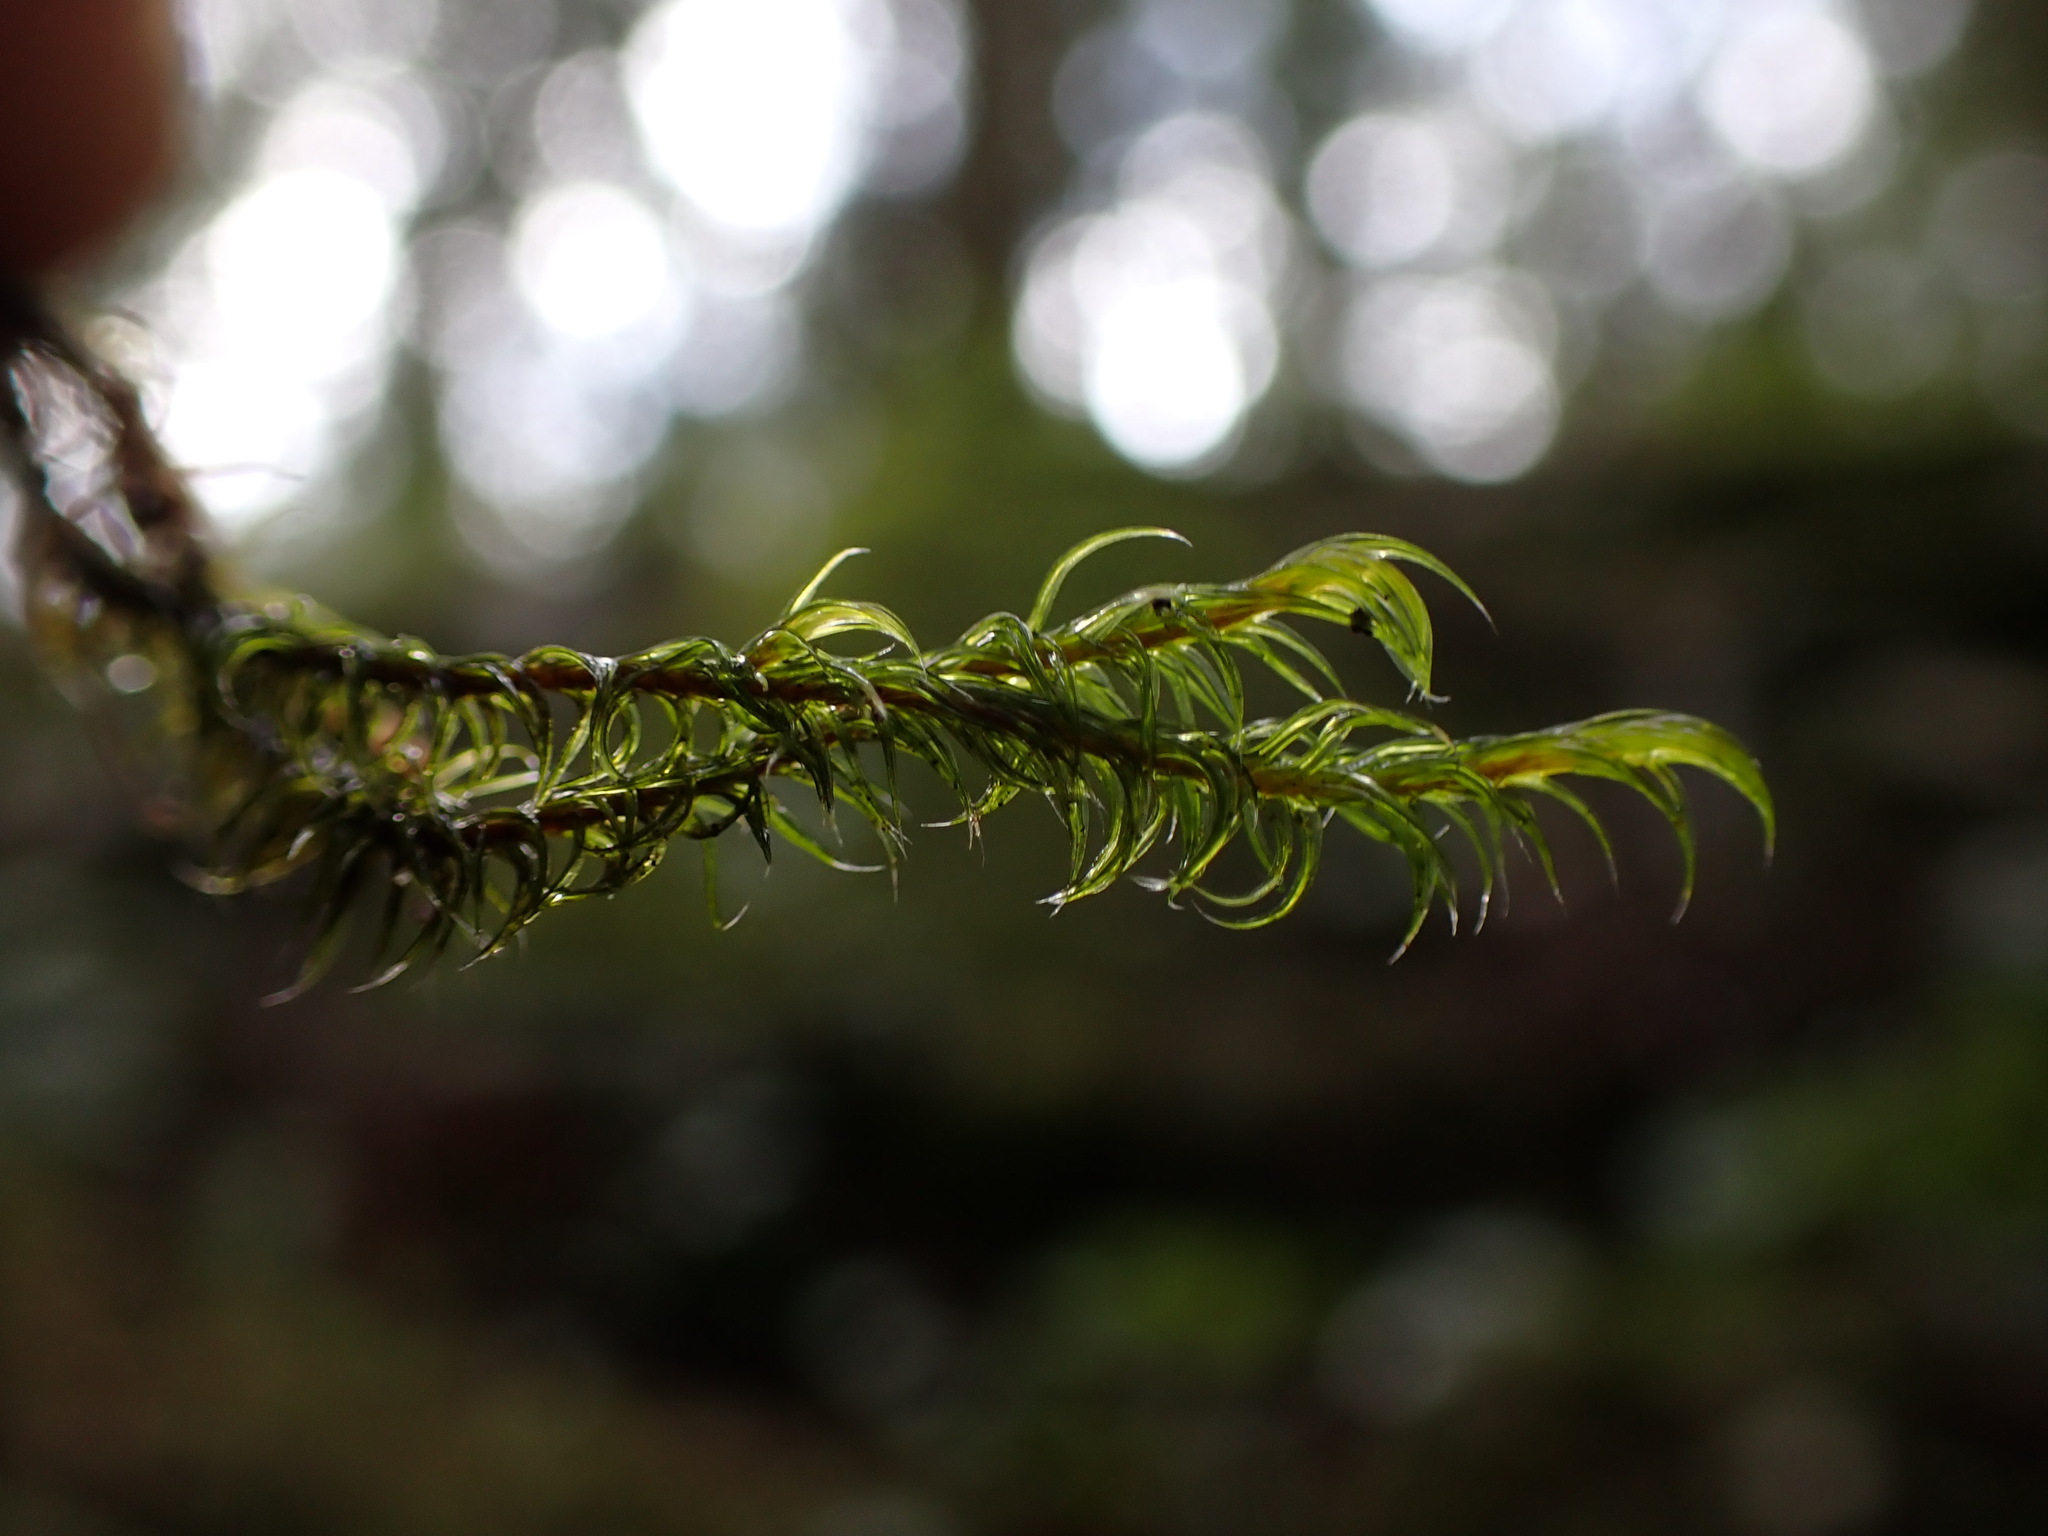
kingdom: Plantae
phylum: Bryophyta
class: Bryopsida
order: Grimmiales
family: Grimmiaceae
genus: Bucklandiella
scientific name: Bucklandiella lawtonae
